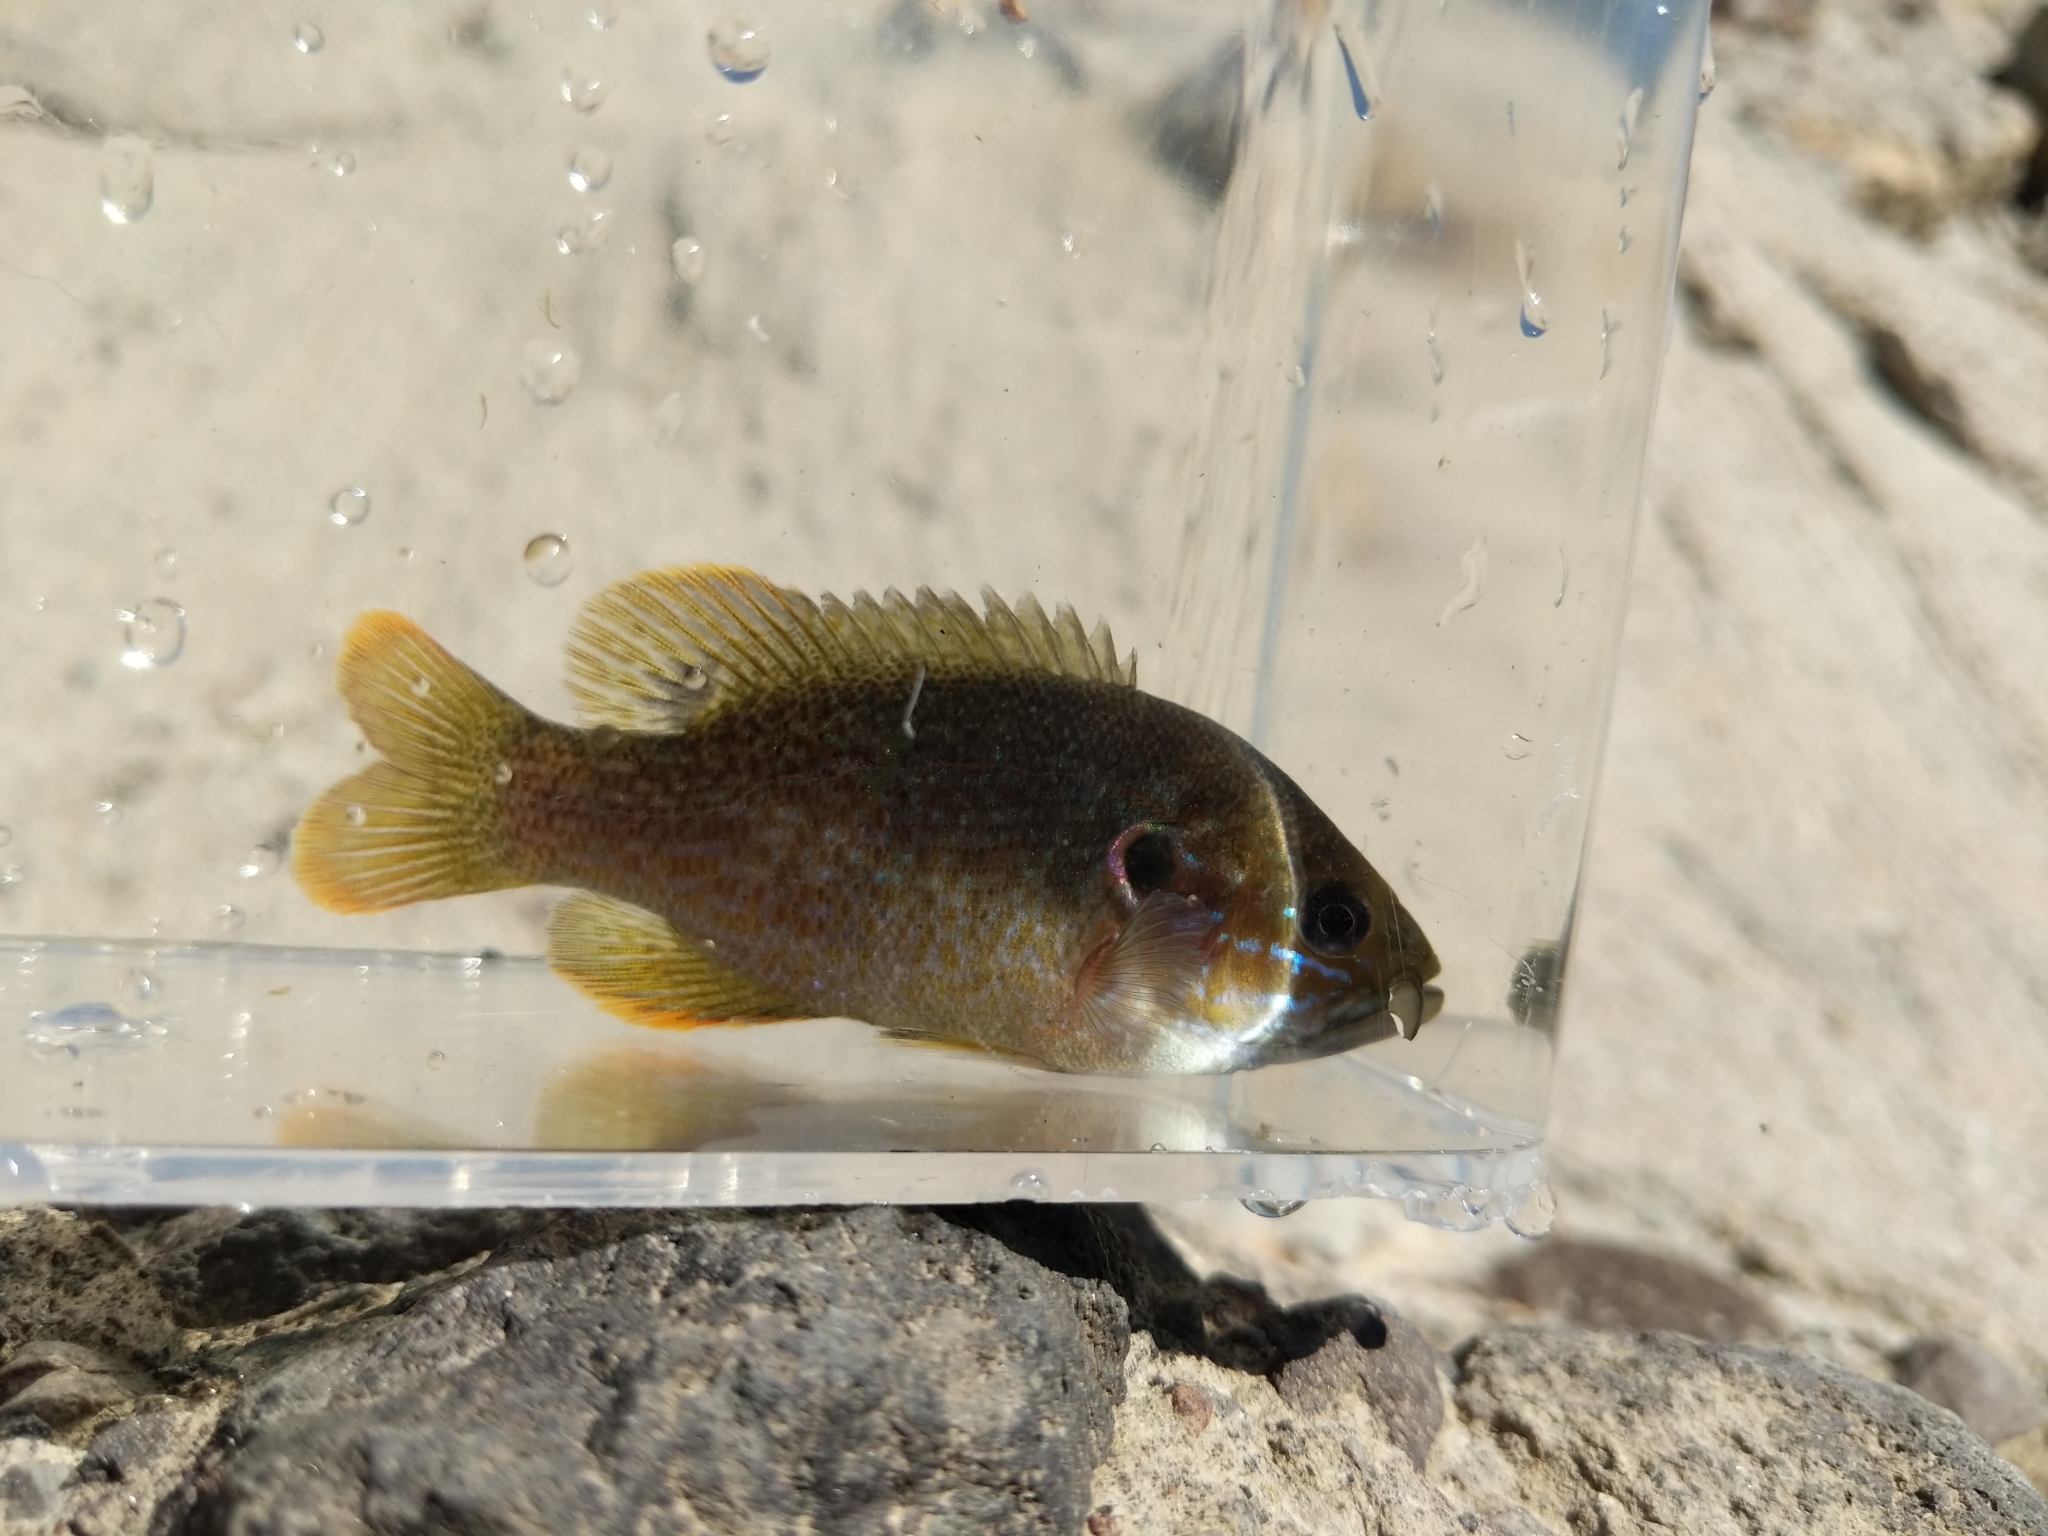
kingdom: Animalia
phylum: Chordata
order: Perciformes
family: Centrarchidae
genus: Lepomis
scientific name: Lepomis cyanellus
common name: Green sunfish
